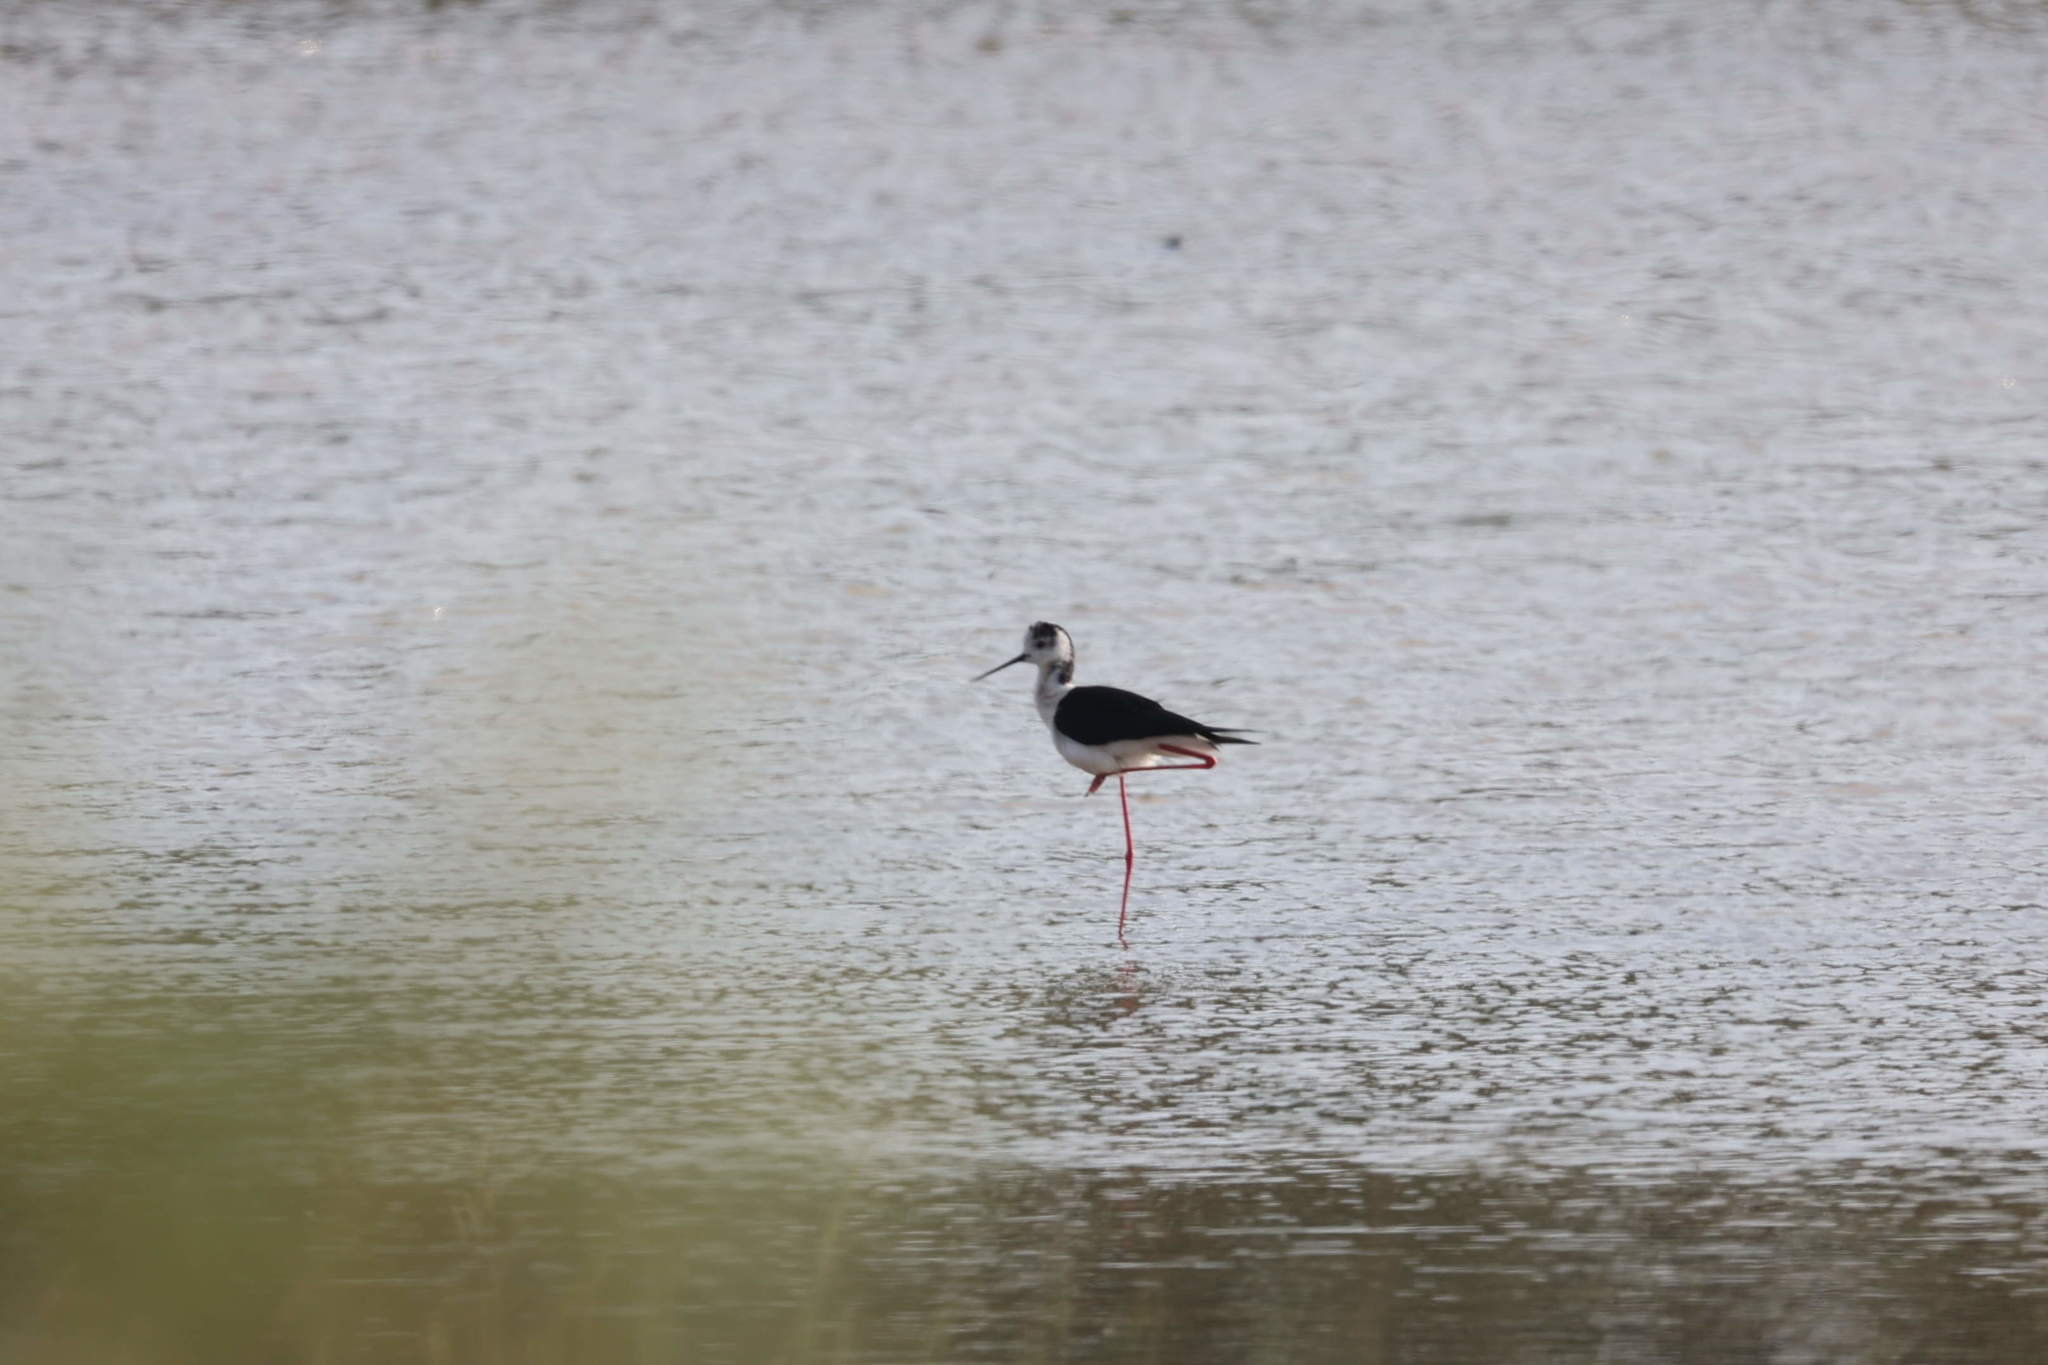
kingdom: Animalia
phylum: Chordata
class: Aves
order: Charadriiformes
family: Recurvirostridae
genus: Himantopus
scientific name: Himantopus himantopus
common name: Black-winged stilt
